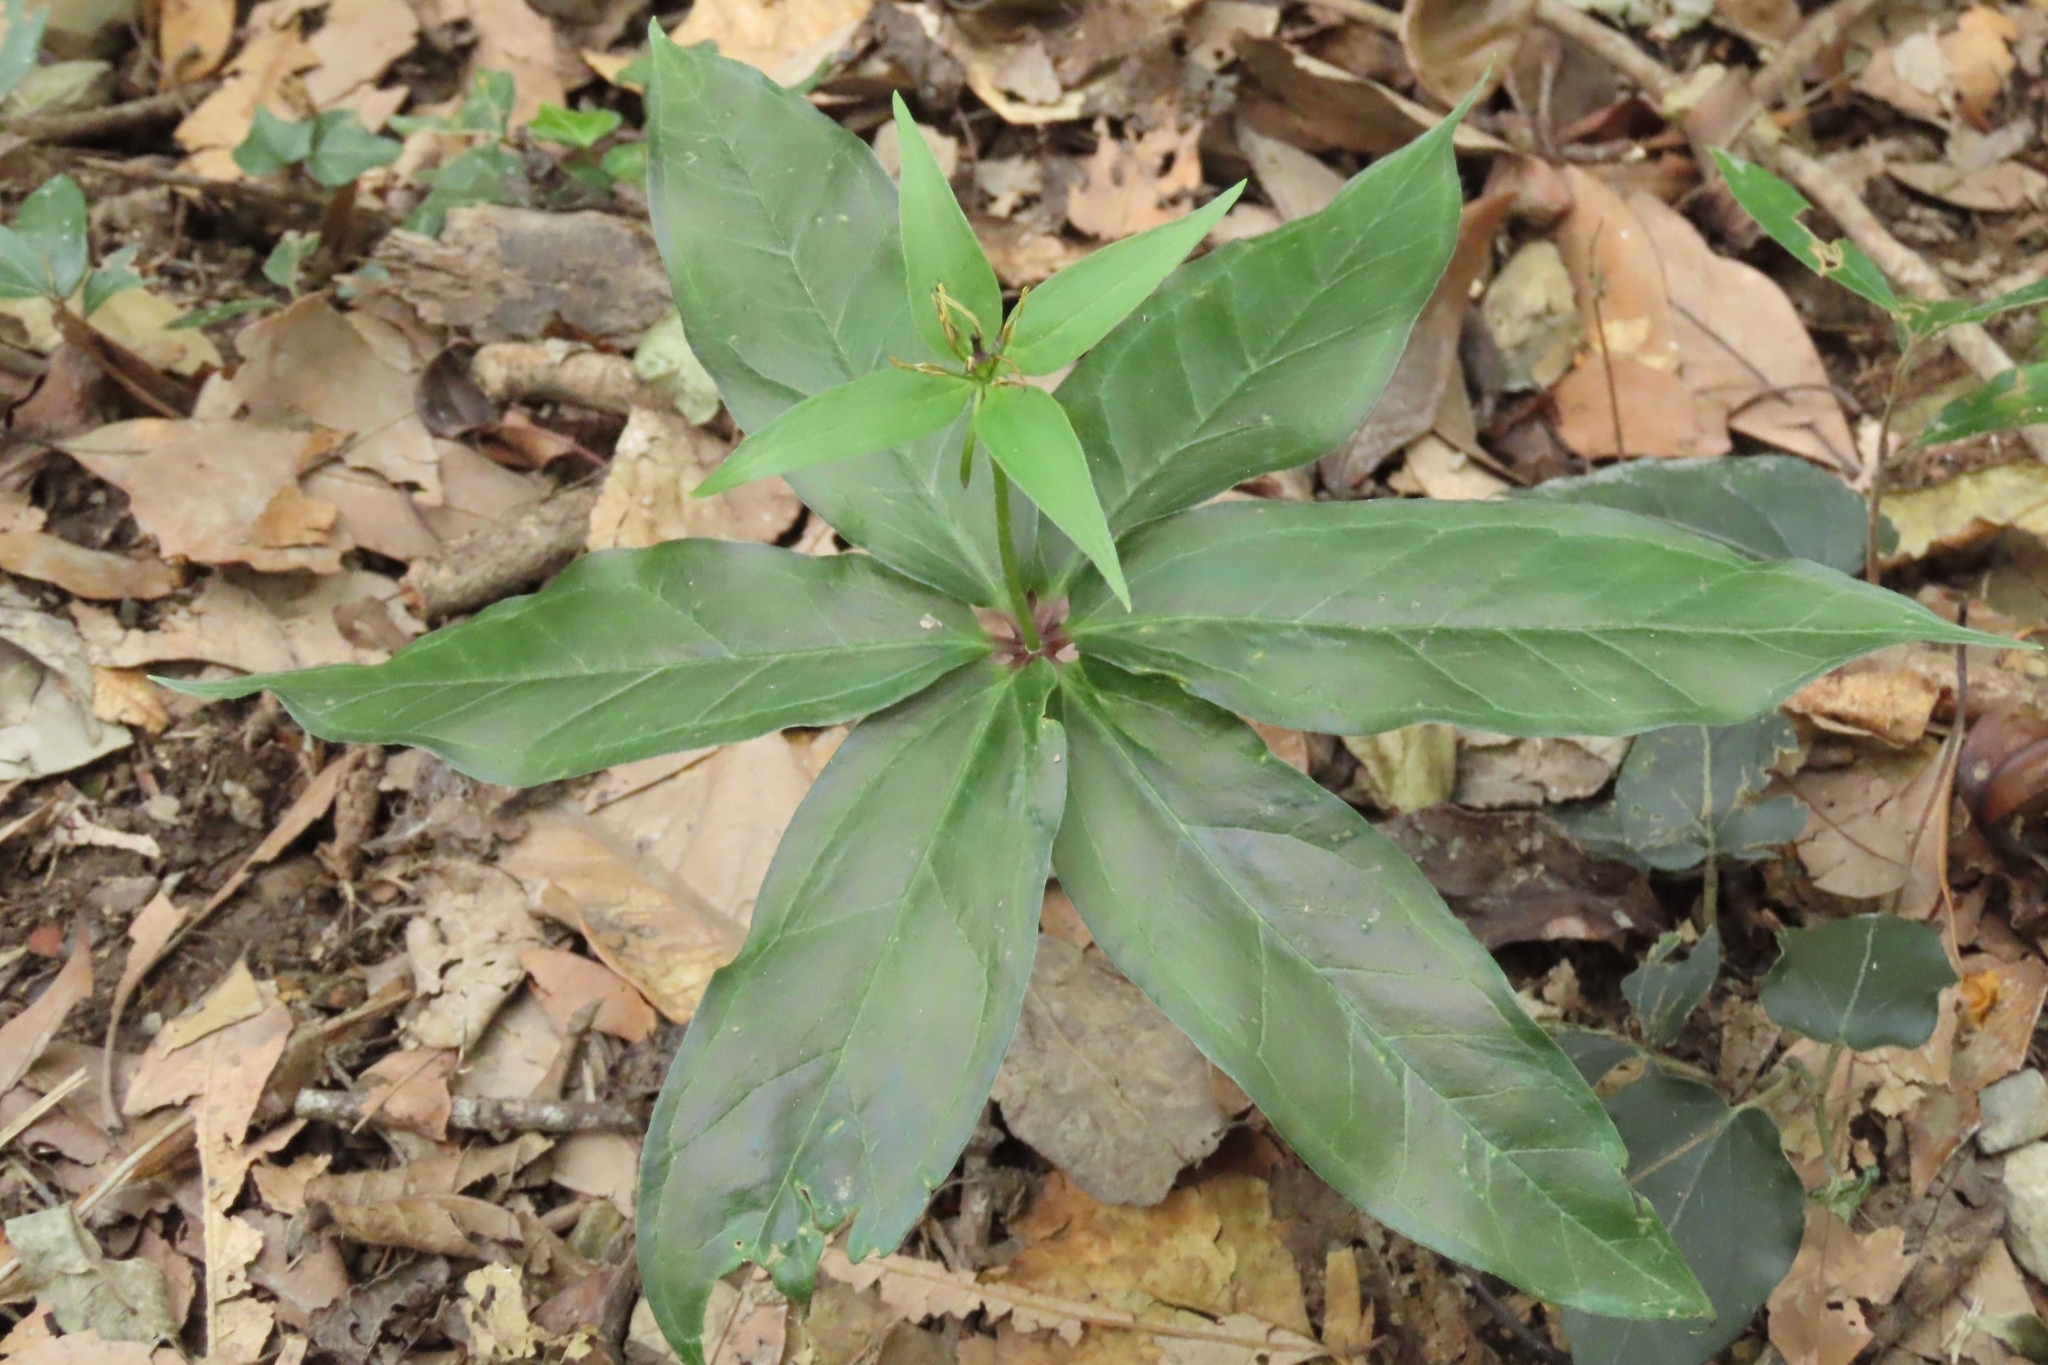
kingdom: Plantae
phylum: Tracheophyta
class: Liliopsida
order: Liliales
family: Melanthiaceae
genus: Paris
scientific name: Paris polyphylla
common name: Love apple
